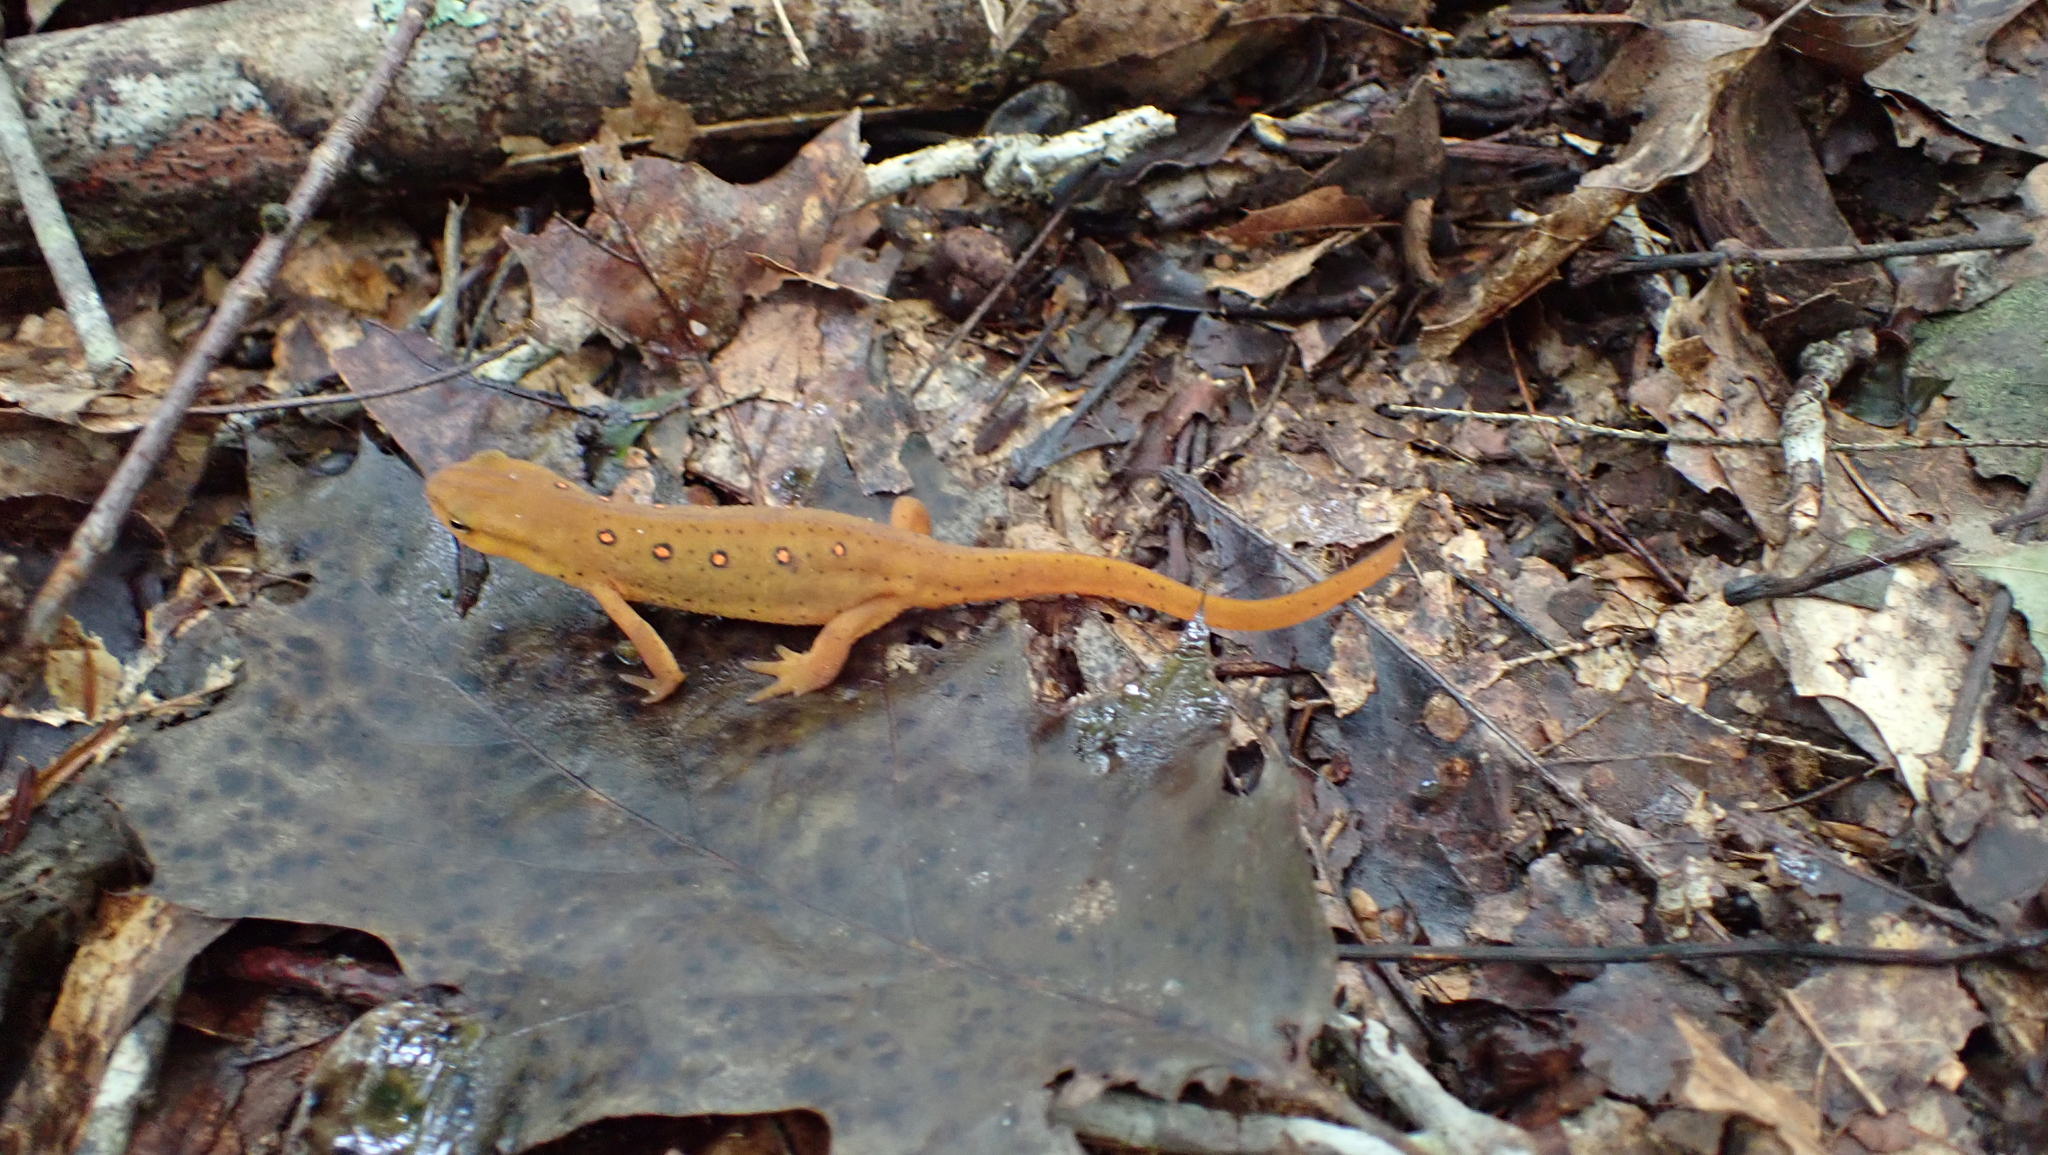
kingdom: Animalia
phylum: Chordata
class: Amphibia
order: Caudata
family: Salamandridae
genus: Notophthalmus
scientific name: Notophthalmus viridescens
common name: Eastern newt
